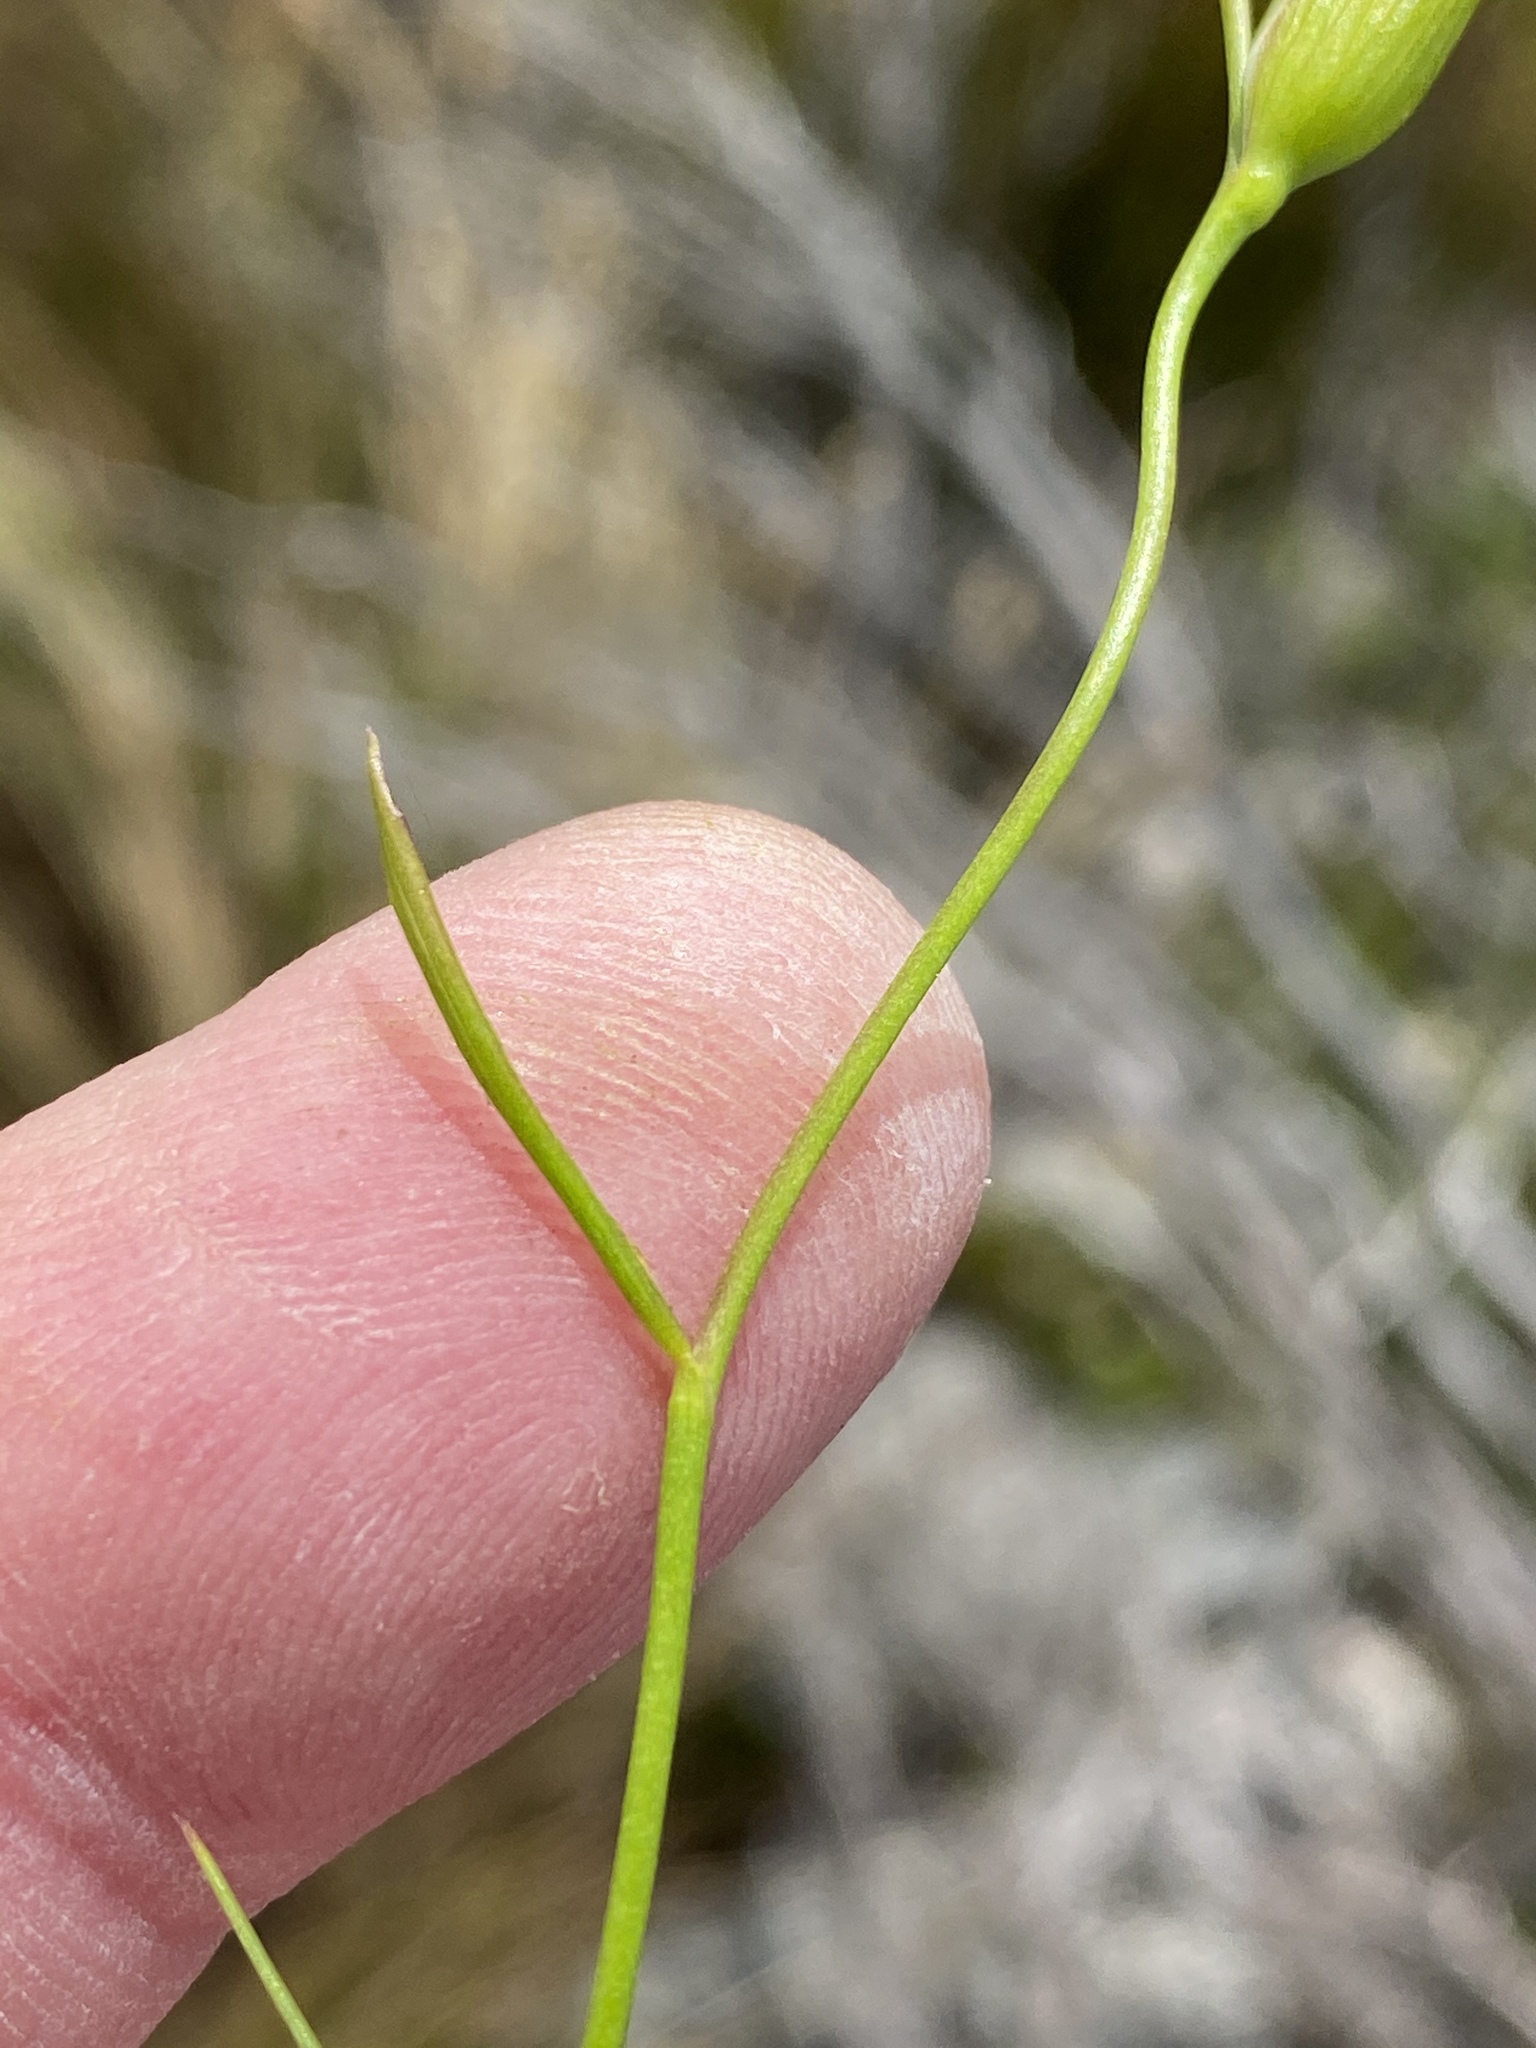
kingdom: Plantae
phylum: Tracheophyta
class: Liliopsida
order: Asparagales
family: Iridaceae
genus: Gladiolus
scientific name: Gladiolus brevitubus
